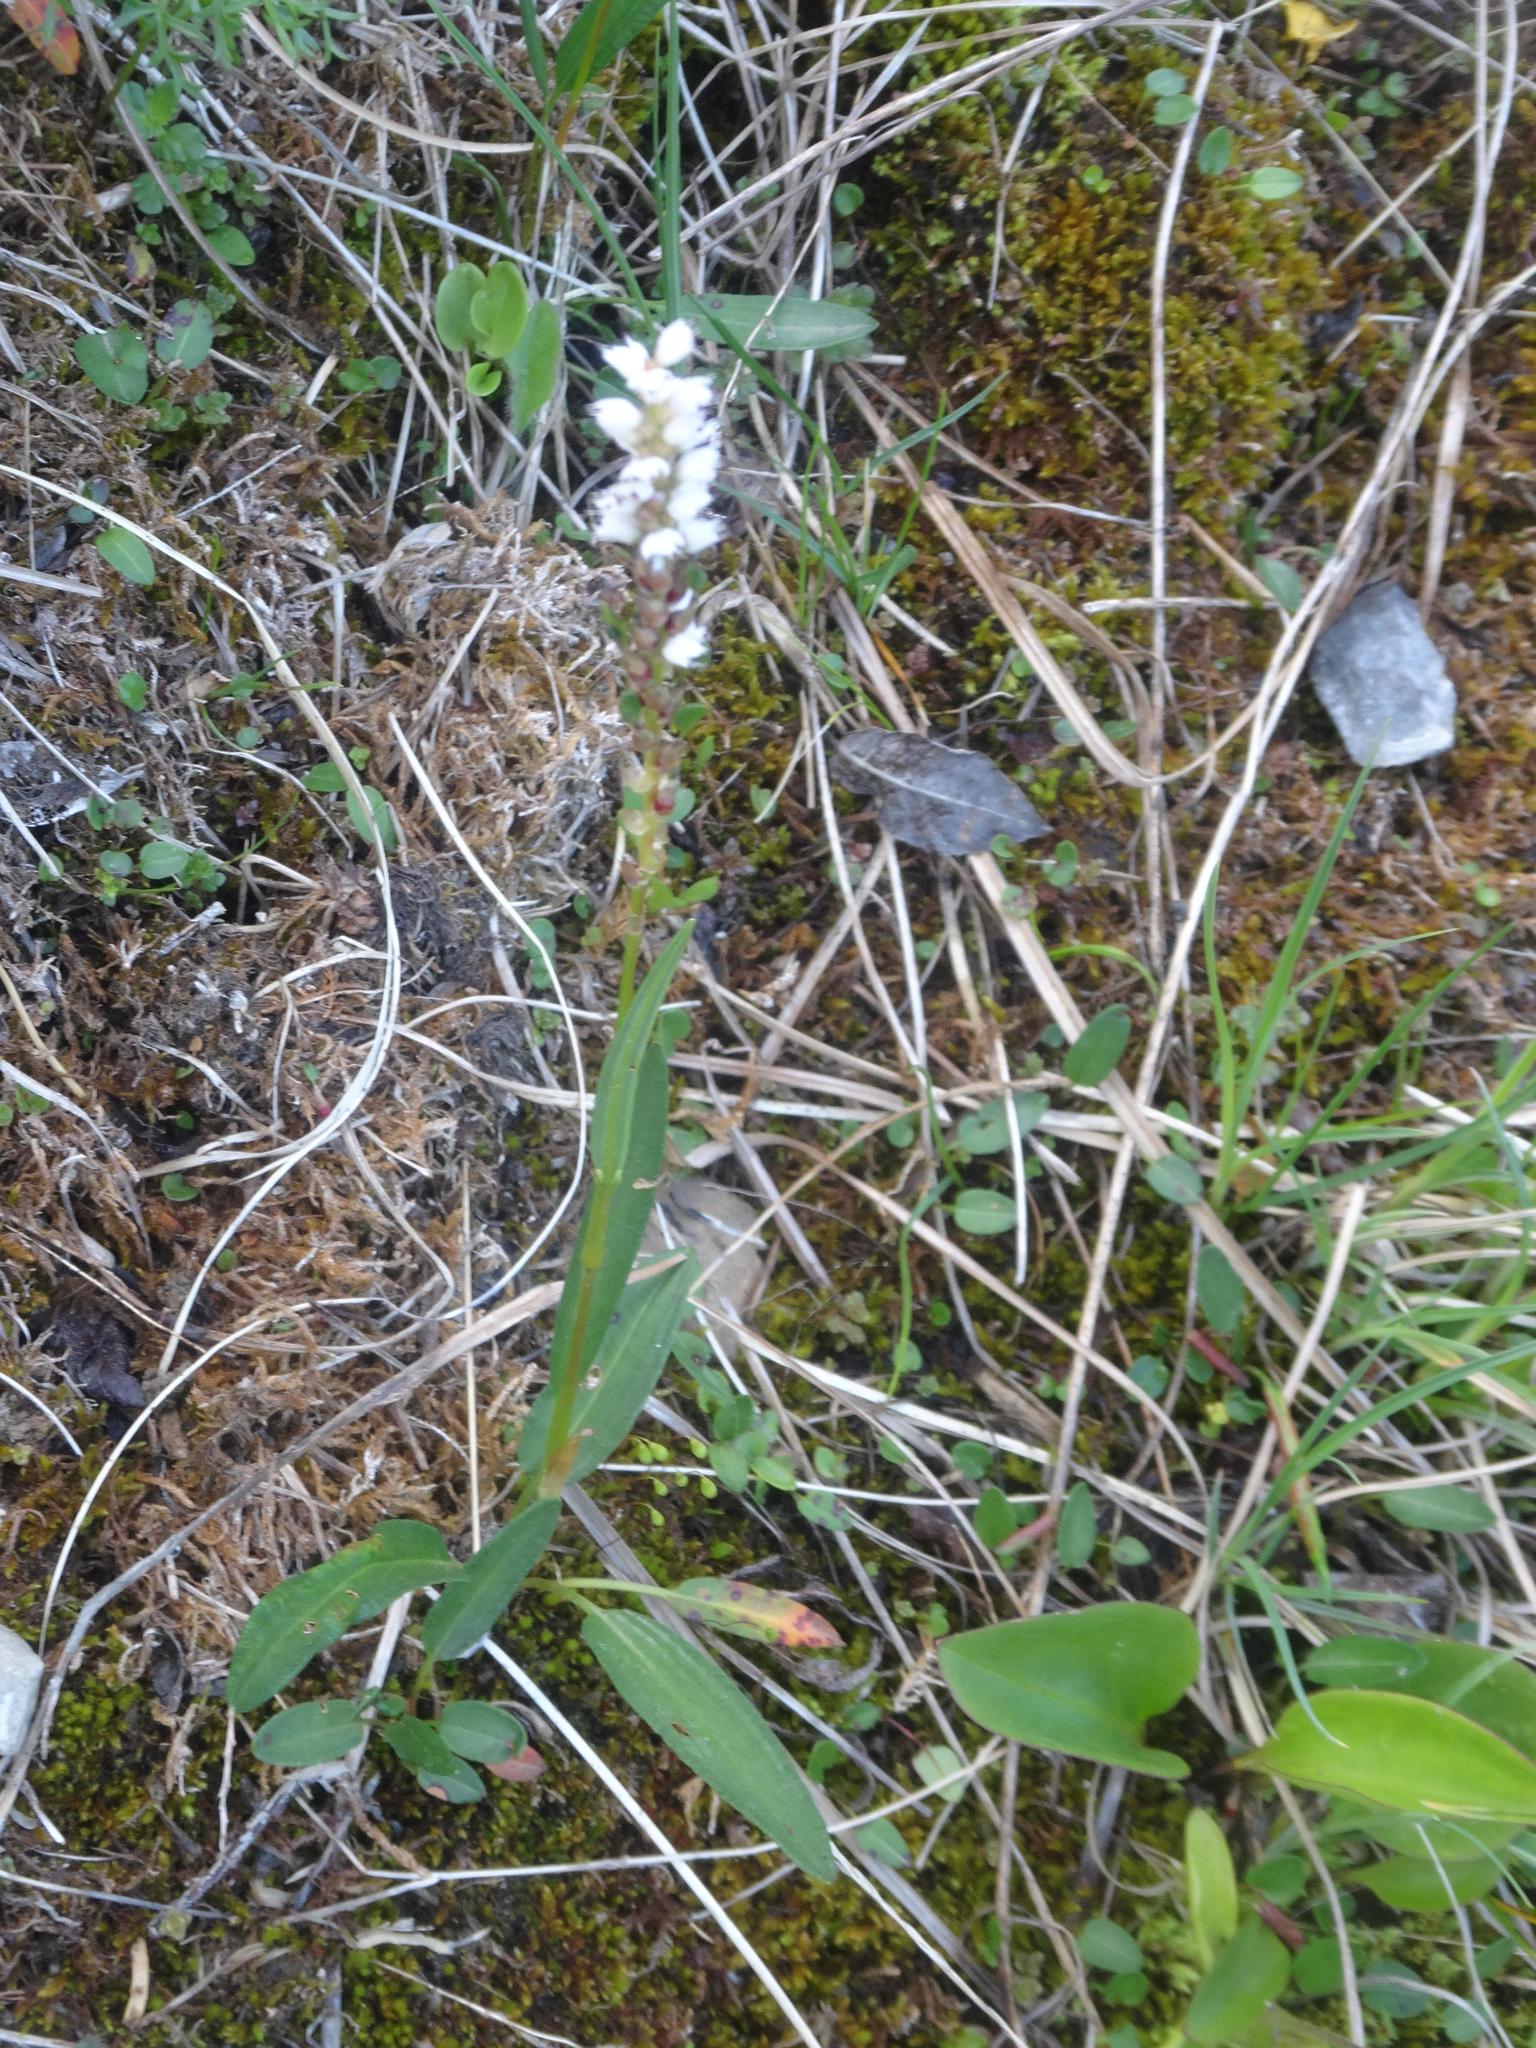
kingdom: Plantae
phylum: Tracheophyta
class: Magnoliopsida
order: Caryophyllales
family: Polygonaceae
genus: Bistorta
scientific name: Bistorta vivipara
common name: Alpine bistort
